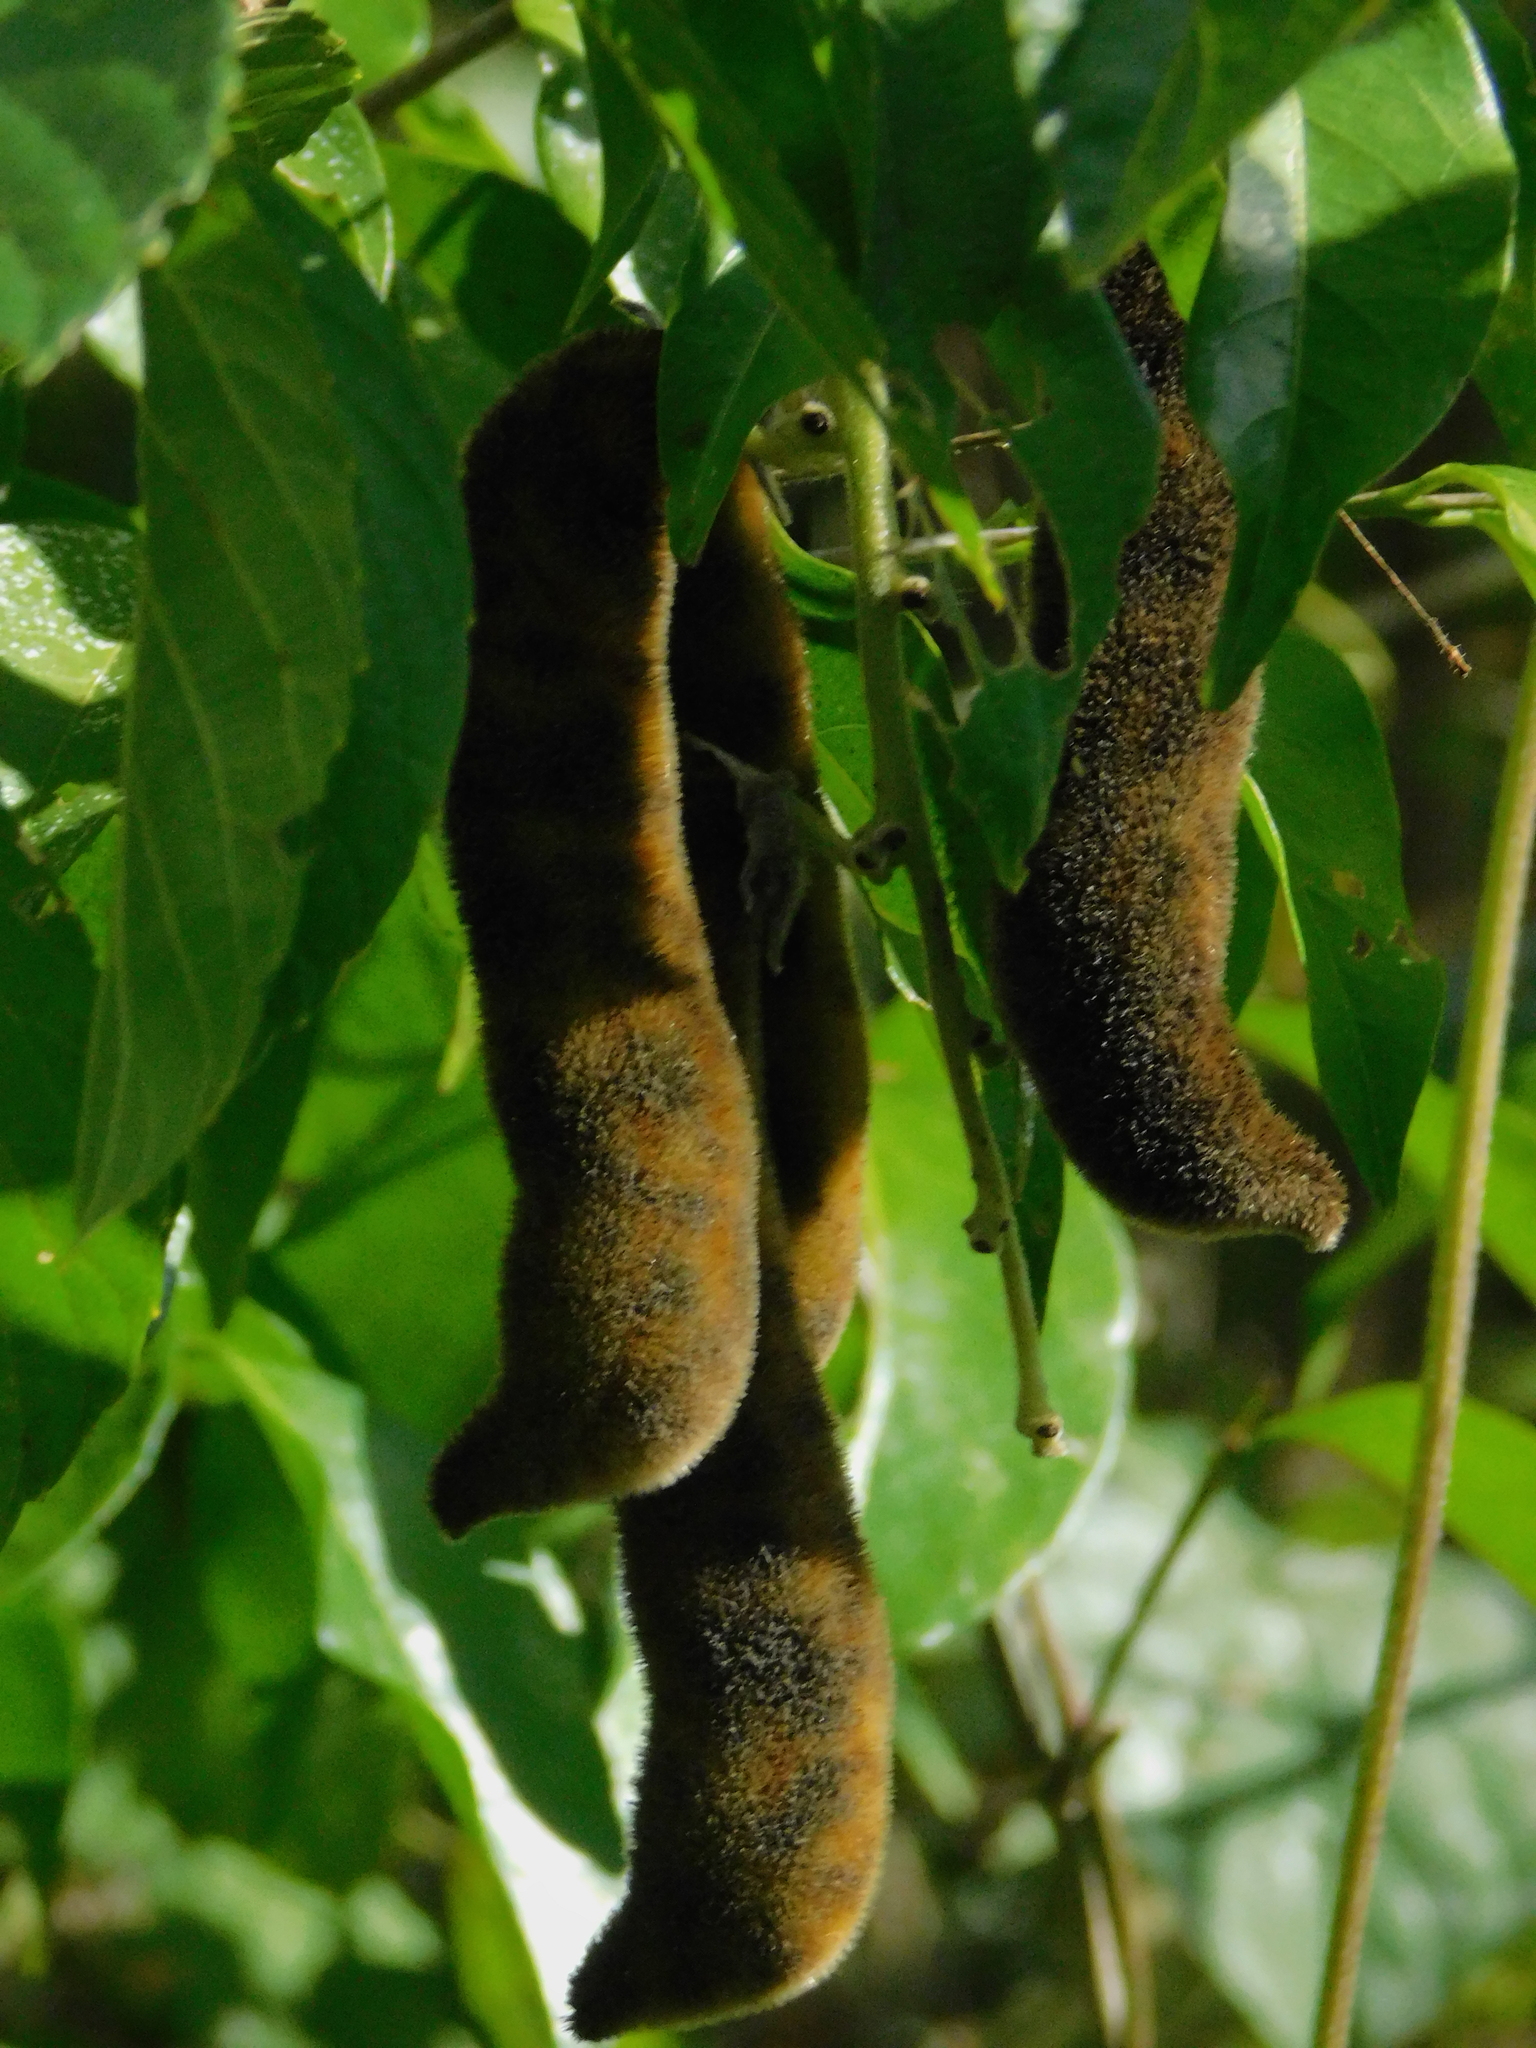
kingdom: Plantae
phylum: Tracheophyta
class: Magnoliopsida
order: Fabales
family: Fabaceae
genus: Mucuna
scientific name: Mucuna pruriens
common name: Cow-itch
